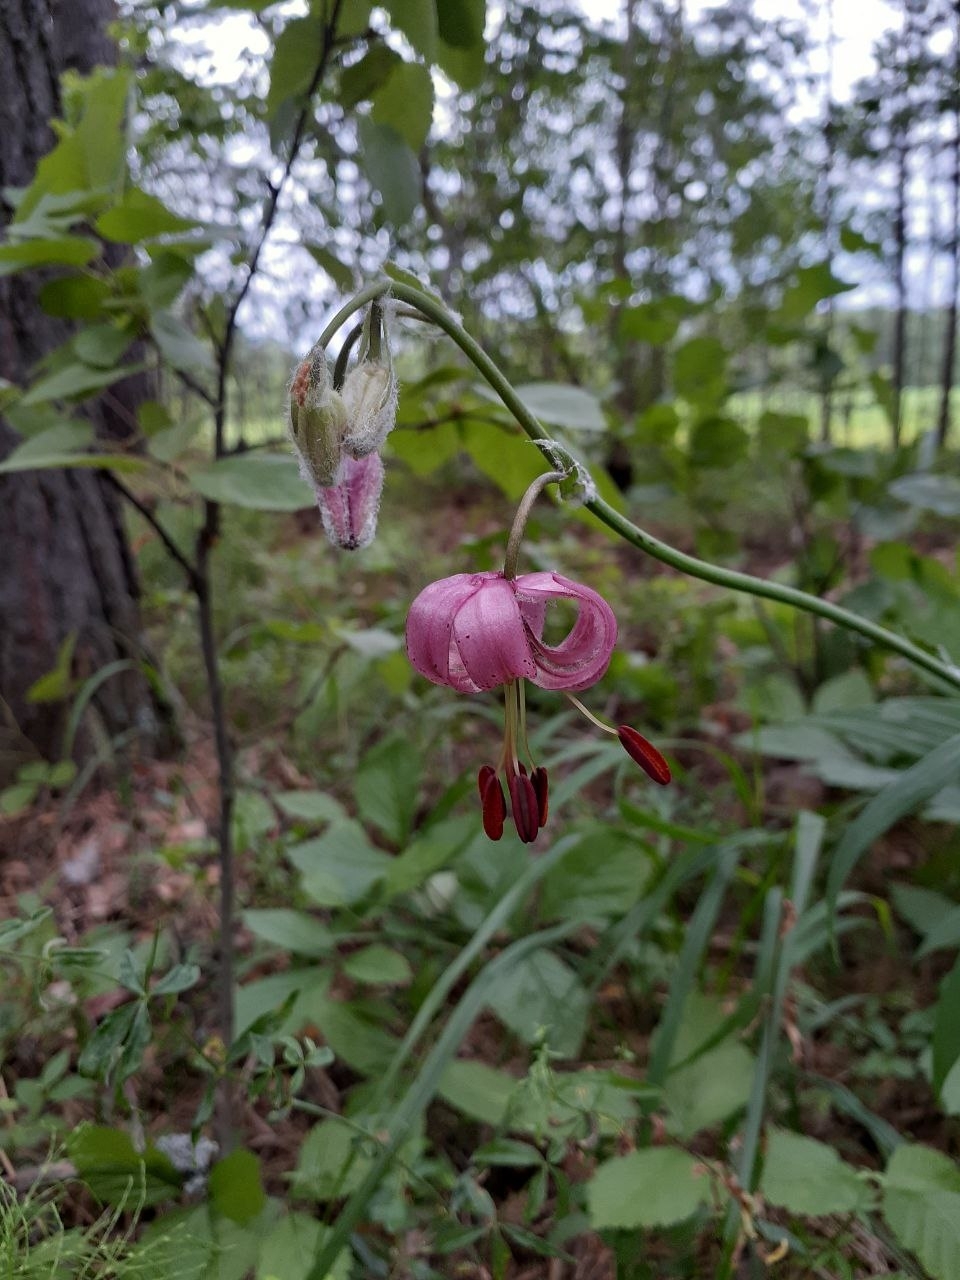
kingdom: Plantae
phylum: Tracheophyta
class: Liliopsida
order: Liliales
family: Liliaceae
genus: Lilium
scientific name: Lilium martagon
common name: Martagon lily
